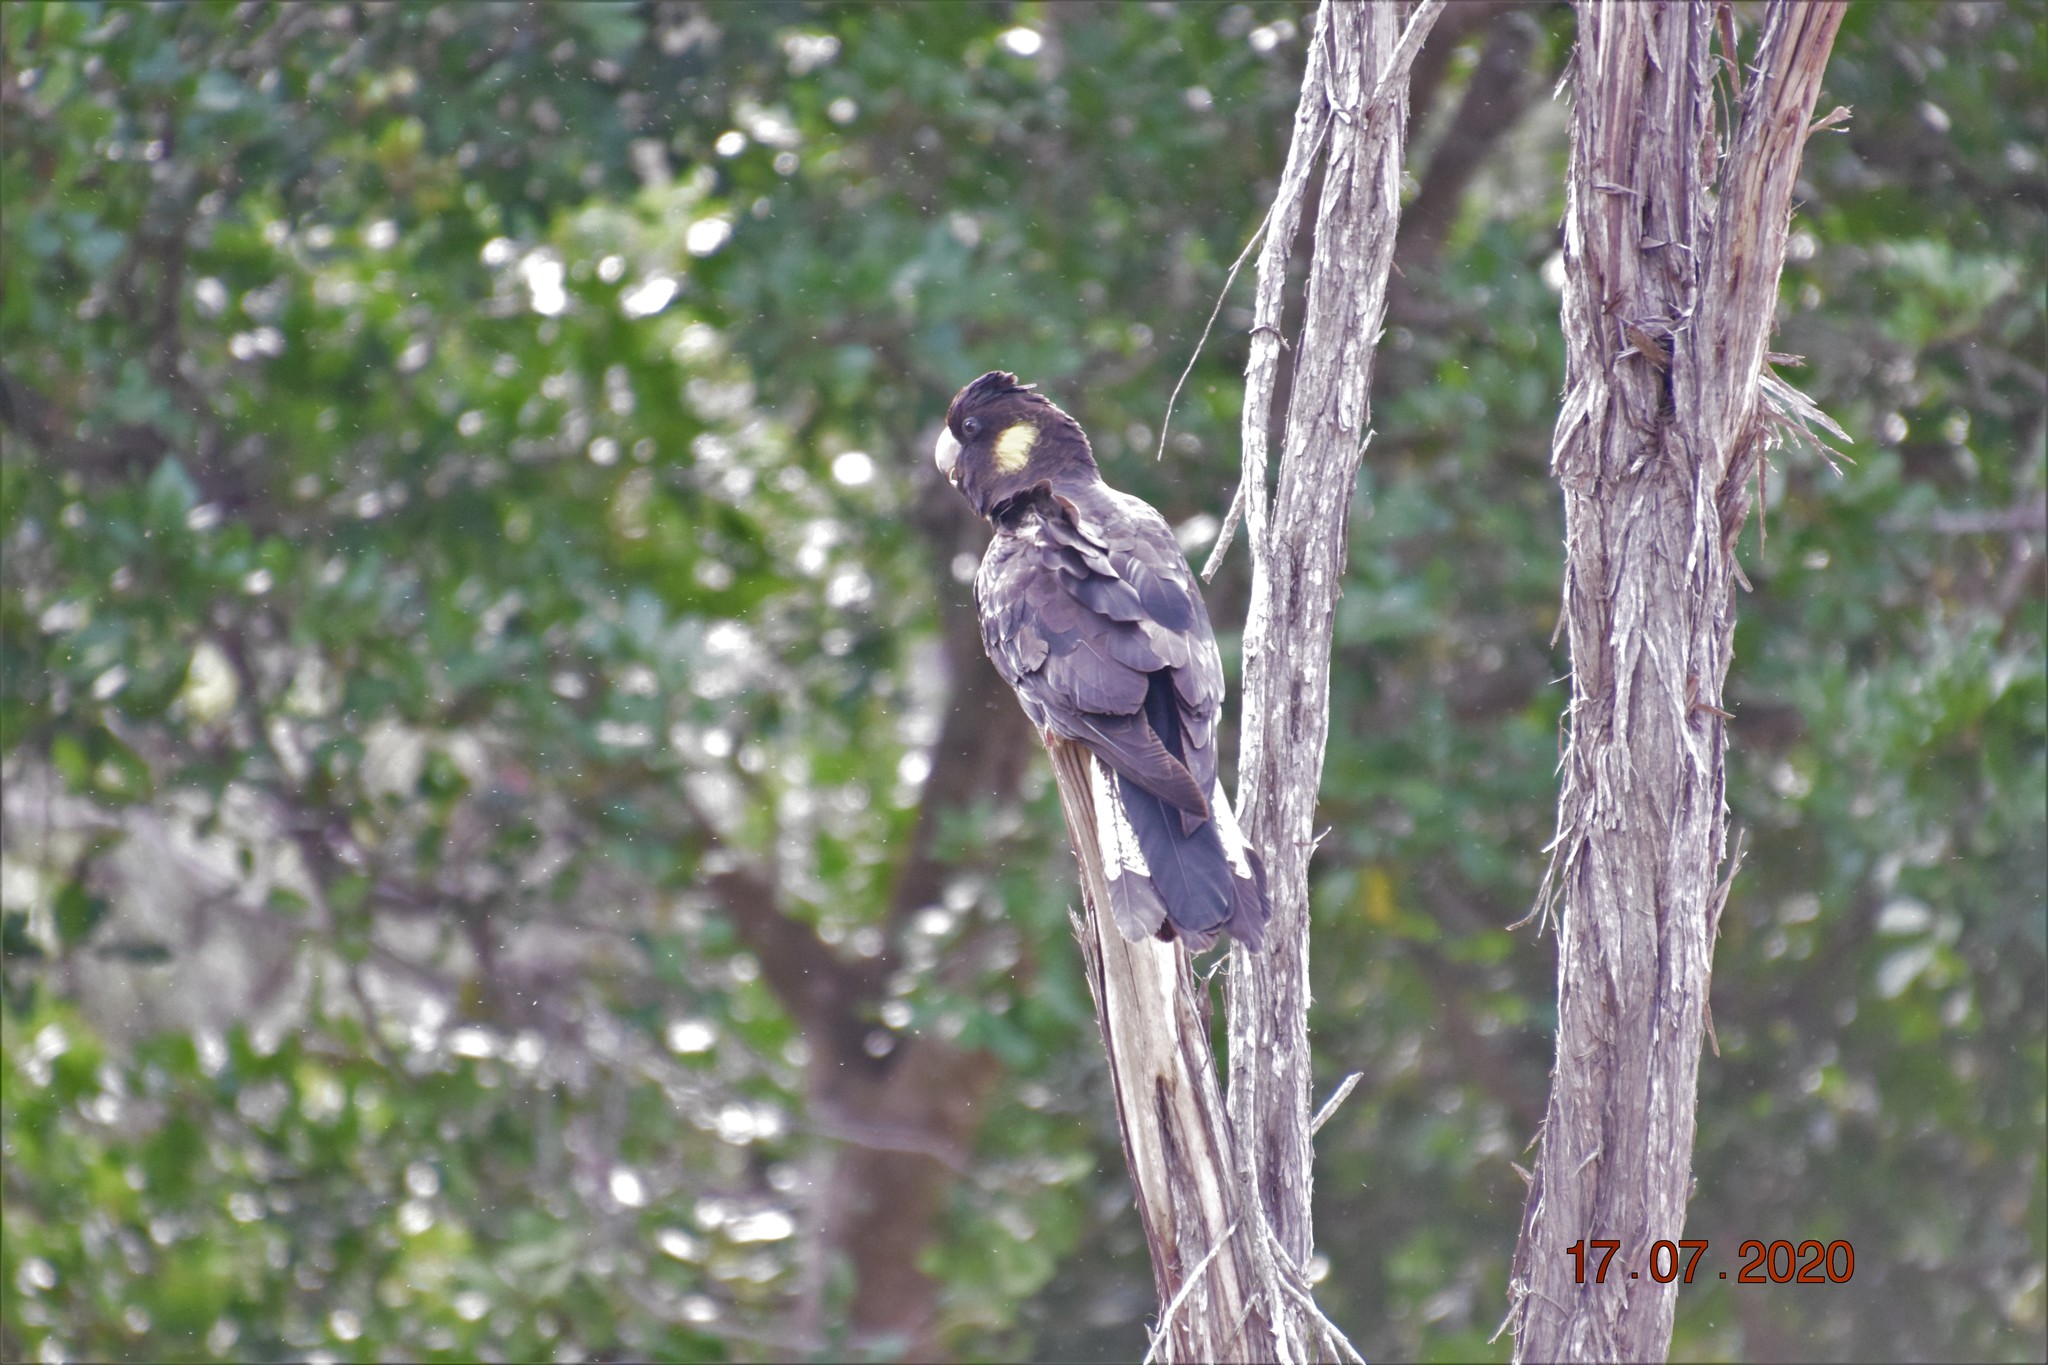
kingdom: Animalia
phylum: Chordata
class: Aves
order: Psittaciformes
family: Cacatuidae
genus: Zanda
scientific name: Zanda funerea
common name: Yellow-tailed black-cockatoo
